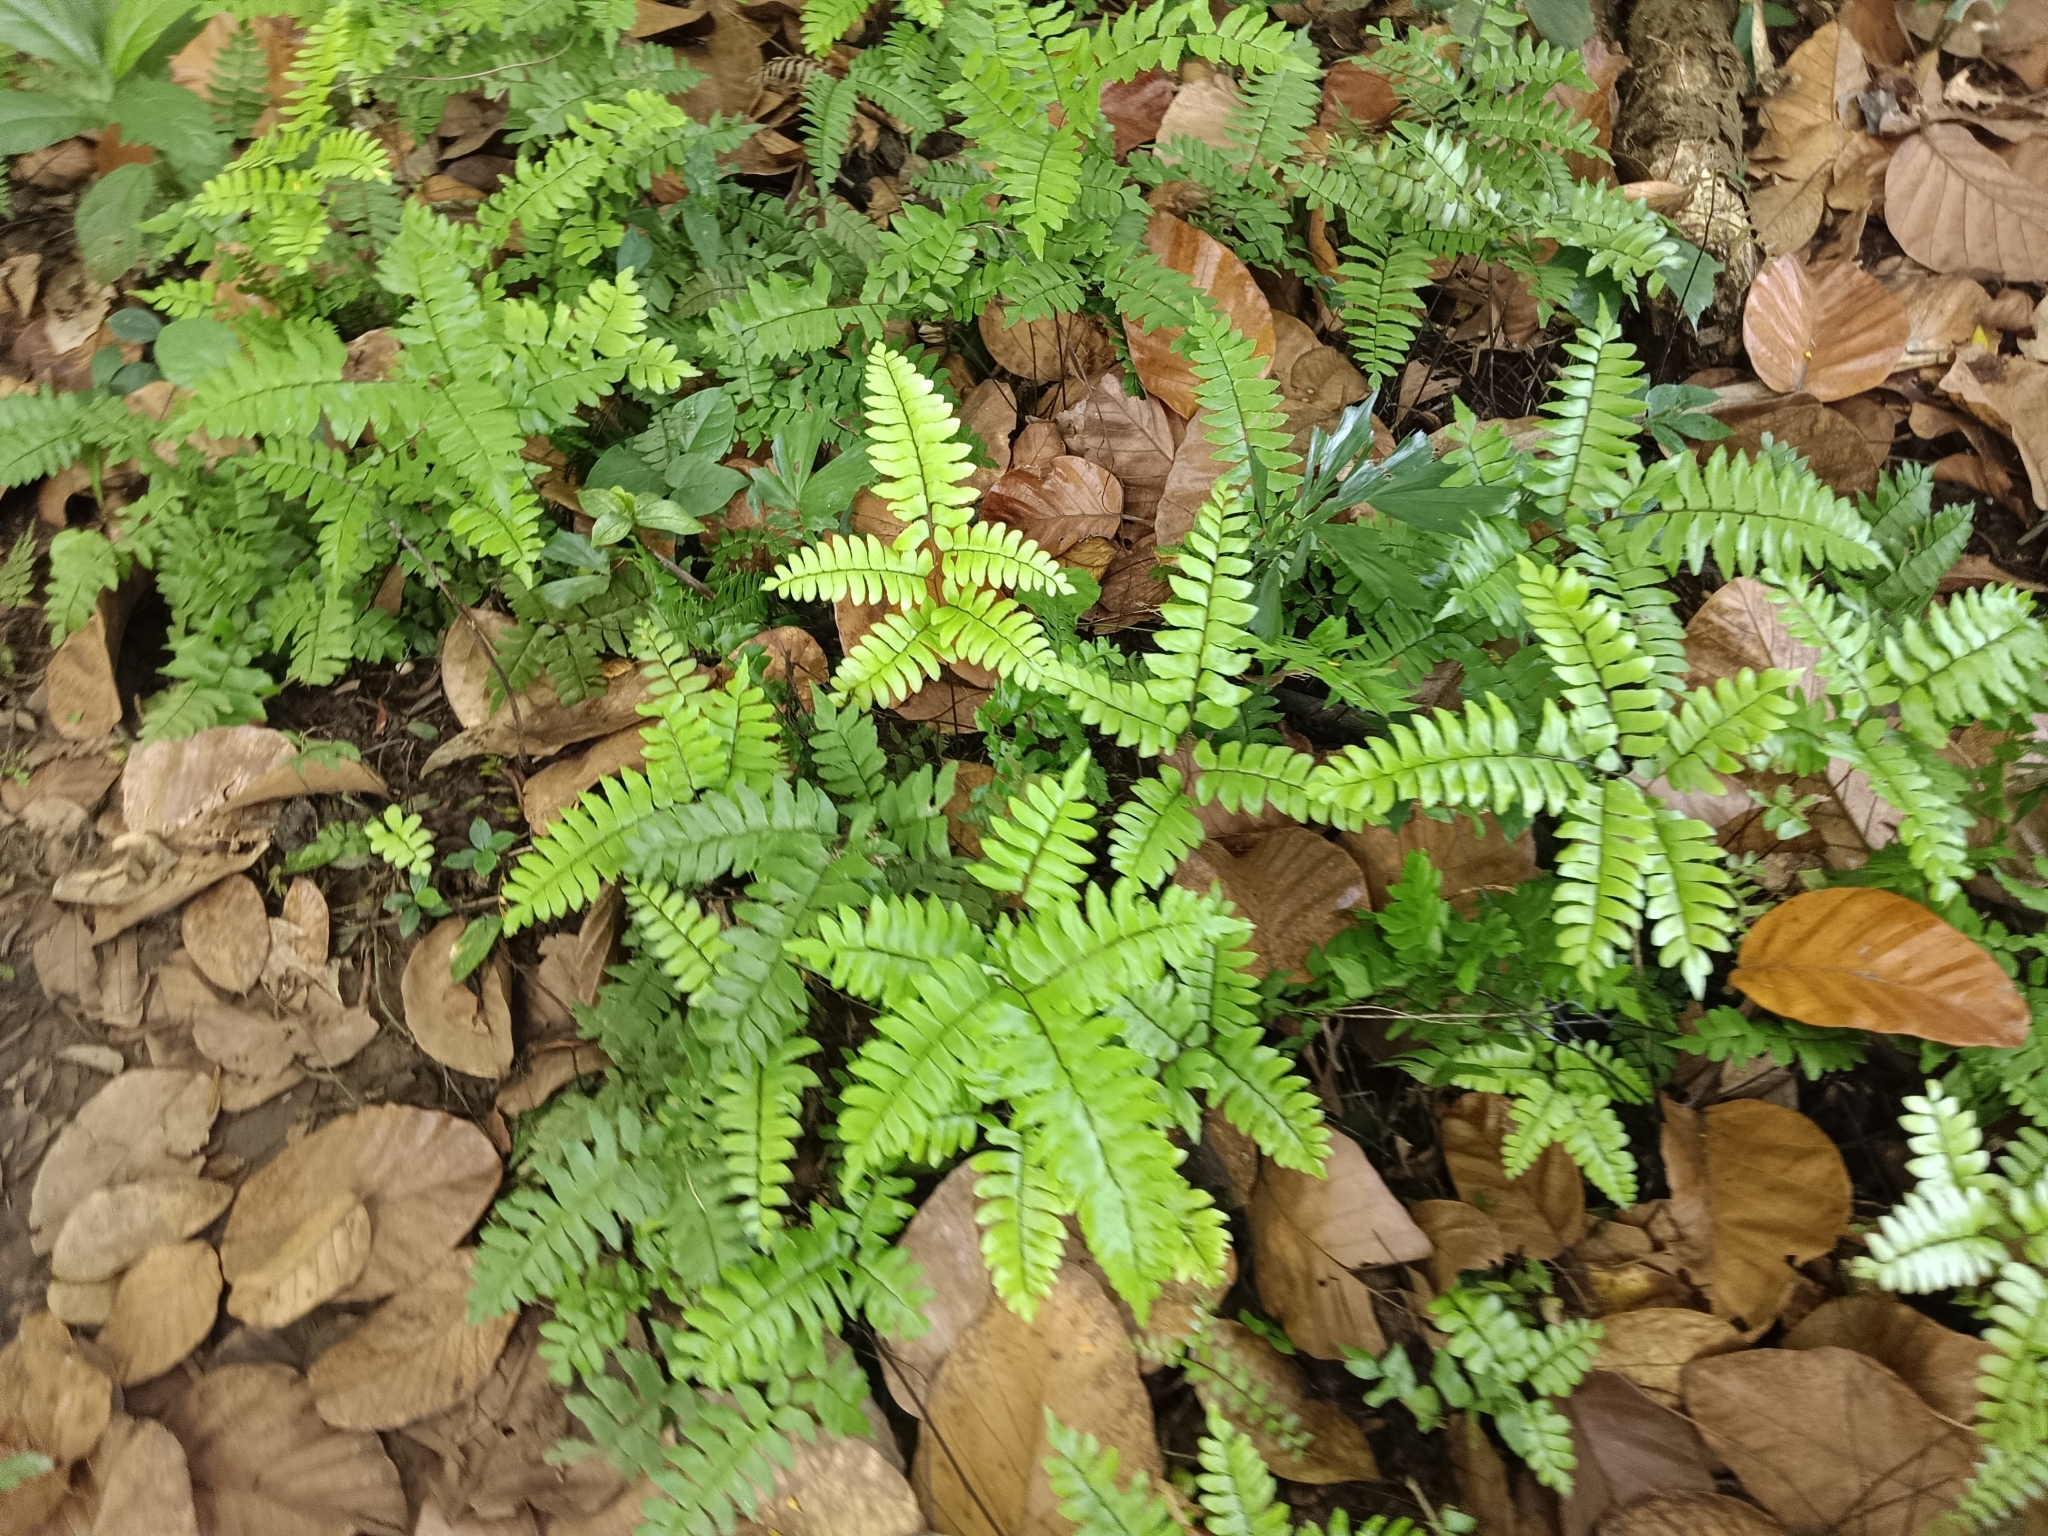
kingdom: Plantae
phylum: Tracheophyta
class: Polypodiopsida
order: Polypodiales
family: Pteridaceae
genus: Adiantum
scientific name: Adiantum latifolium
